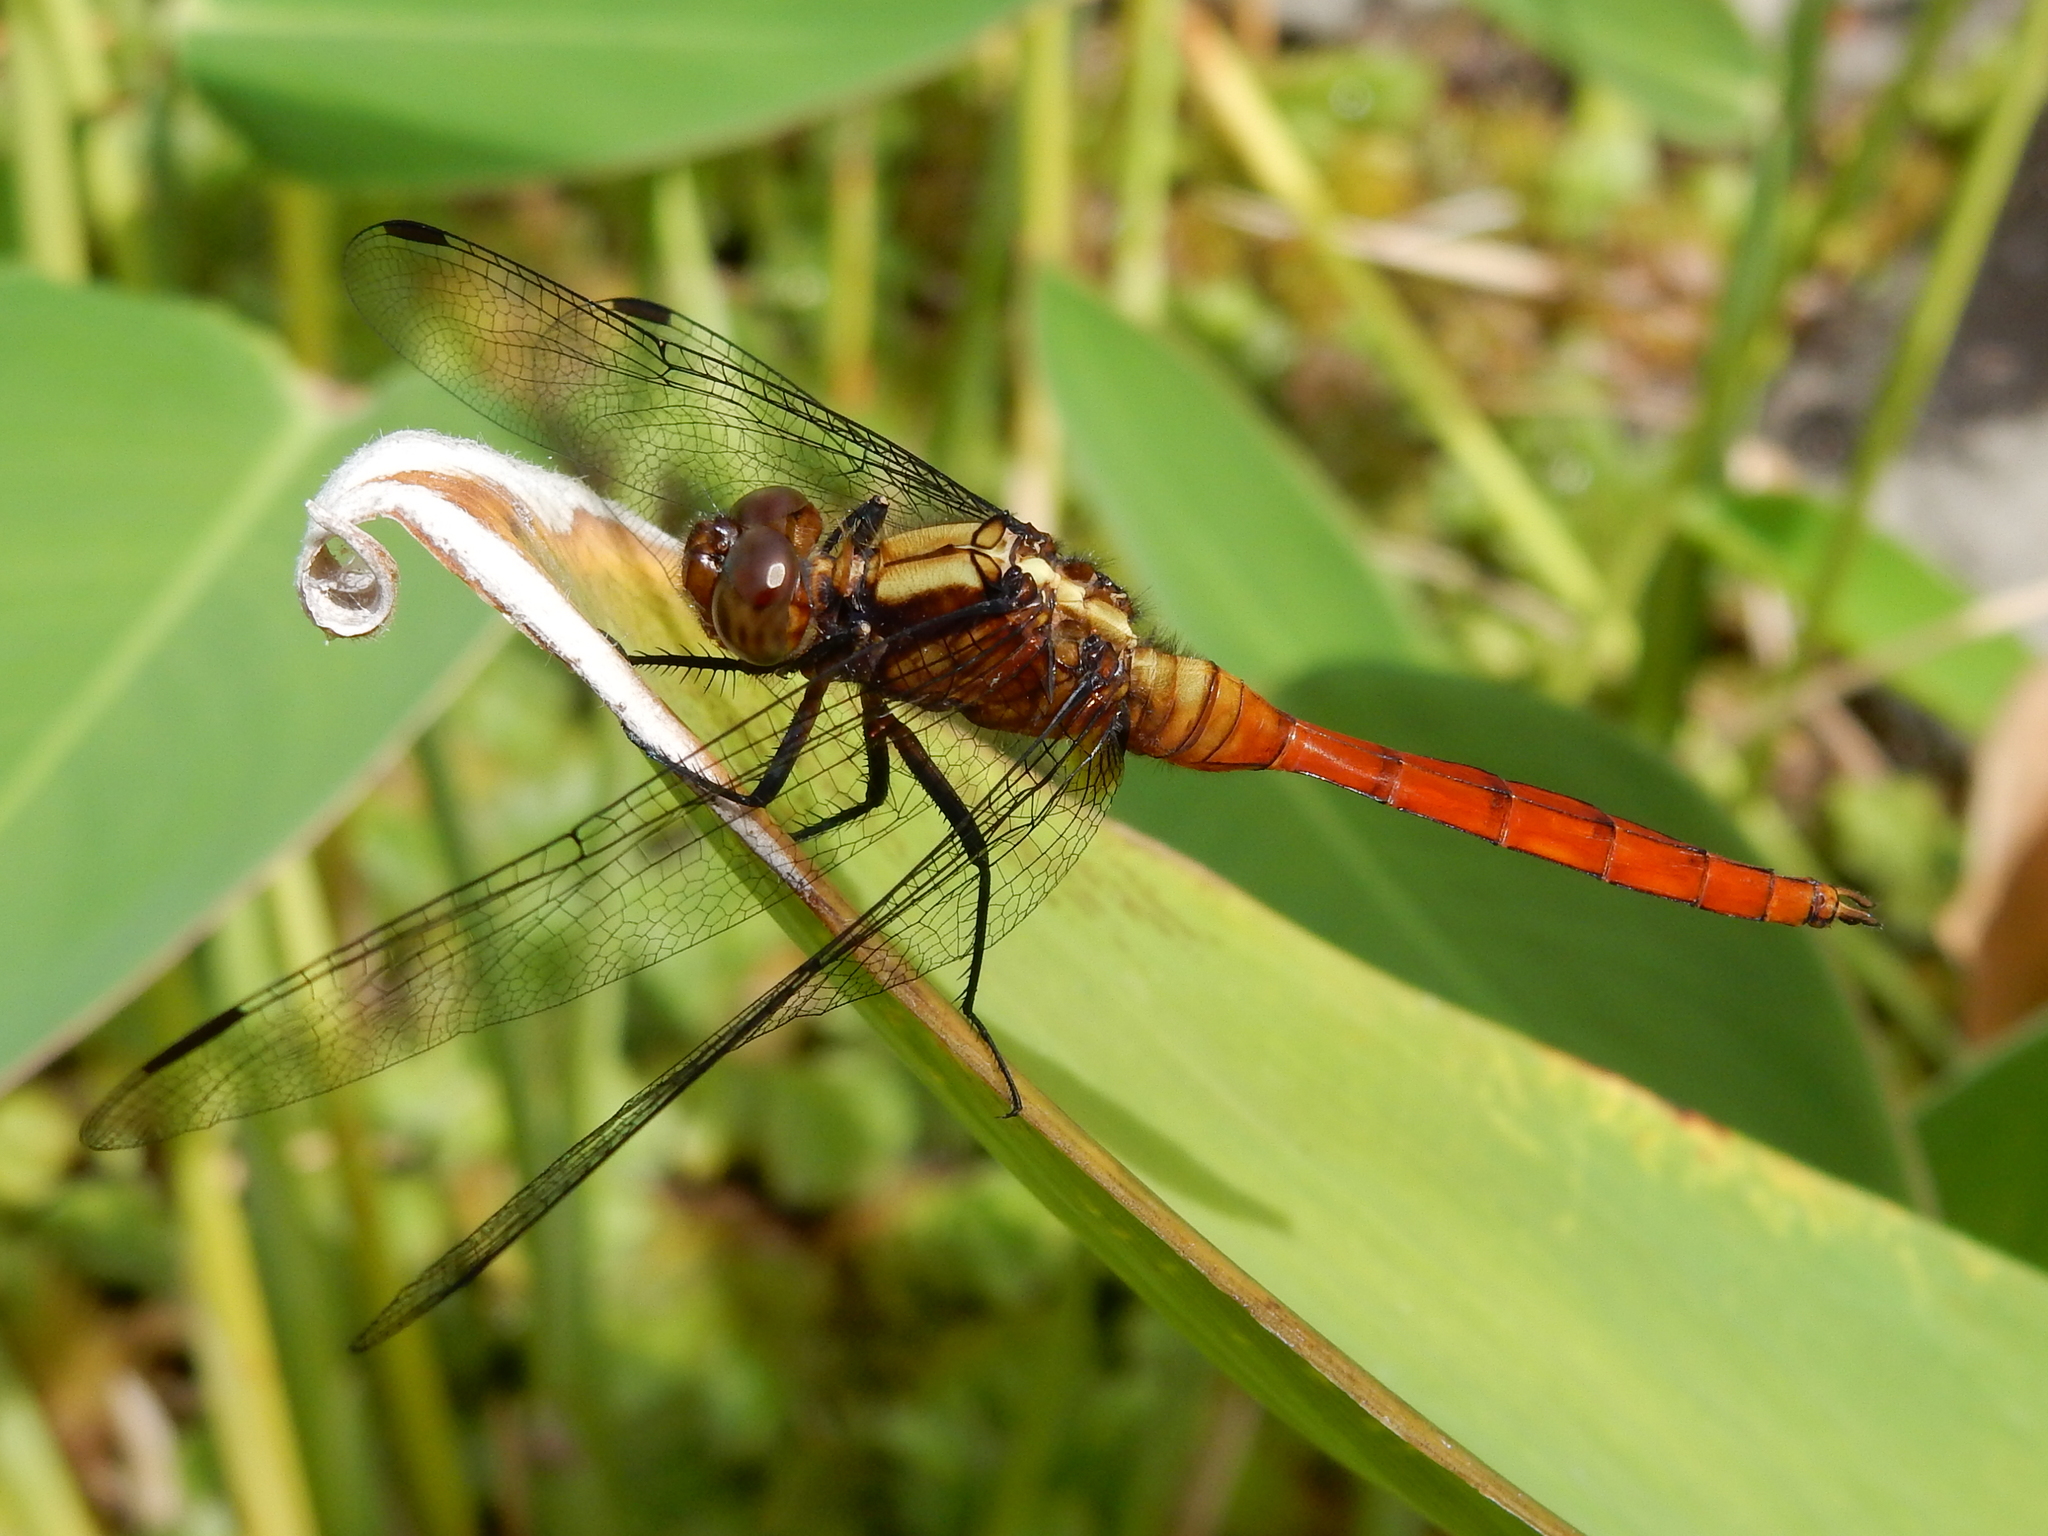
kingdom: Animalia
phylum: Arthropoda
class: Insecta
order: Odonata
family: Libellulidae
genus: Orthetrum
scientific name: Orthetrum villosovittatum
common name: Firery skimmer
